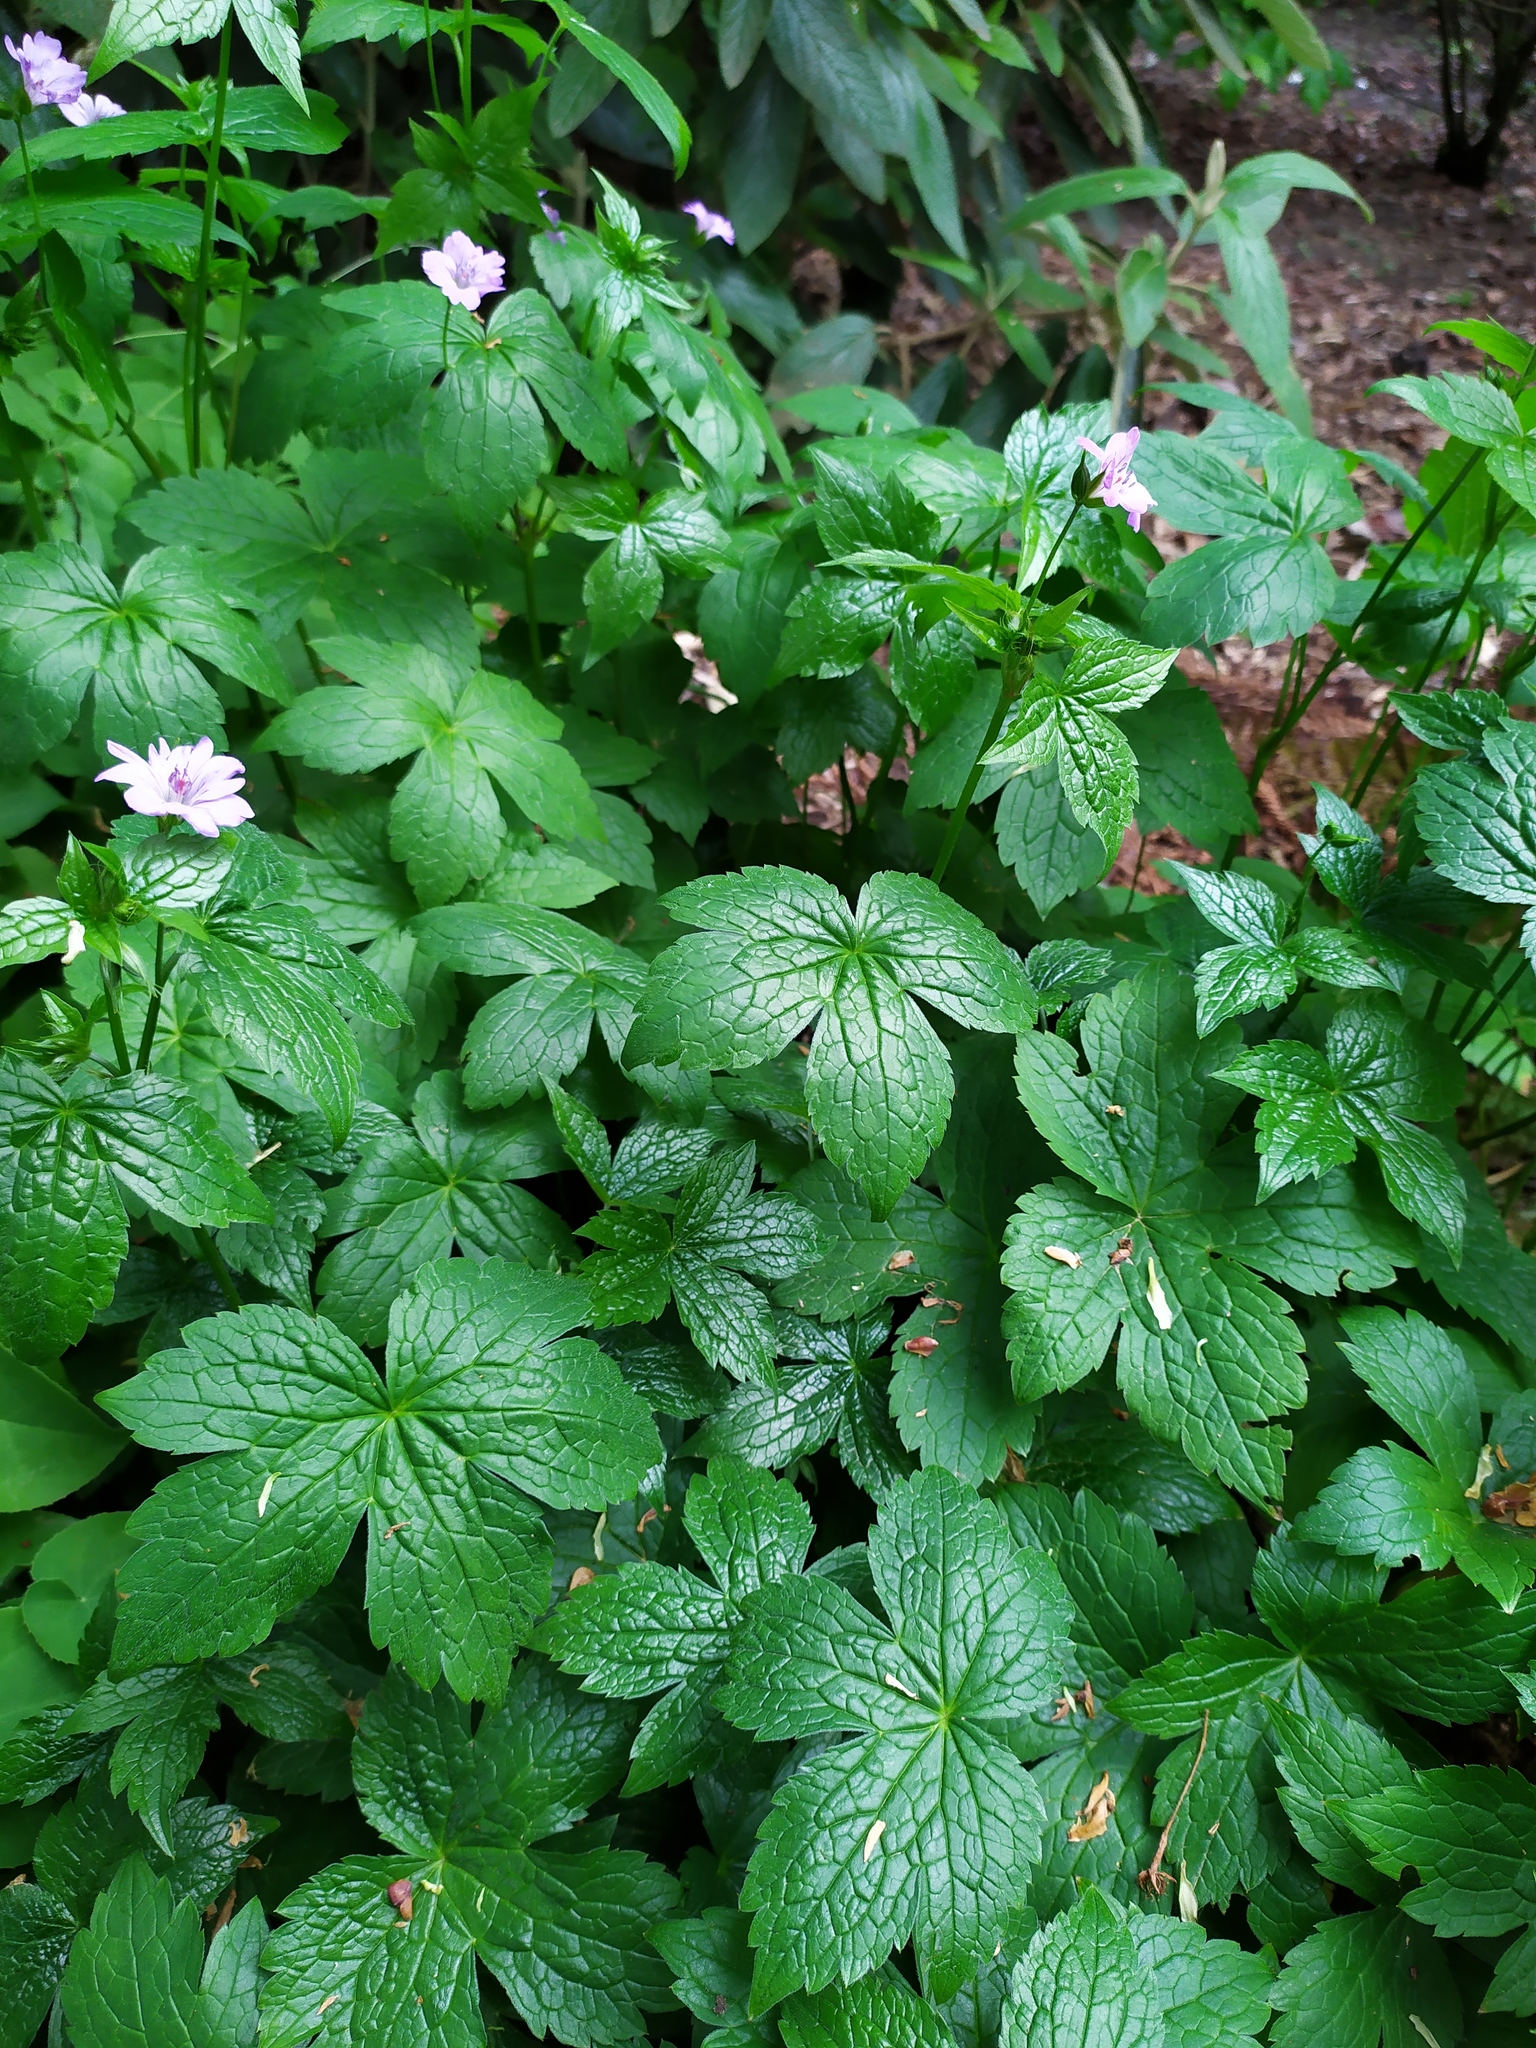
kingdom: Plantae
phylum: Tracheophyta
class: Magnoliopsida
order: Geraniales
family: Geraniaceae
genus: Geranium
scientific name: Geranium nodosum
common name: Knotted crane's-bill
